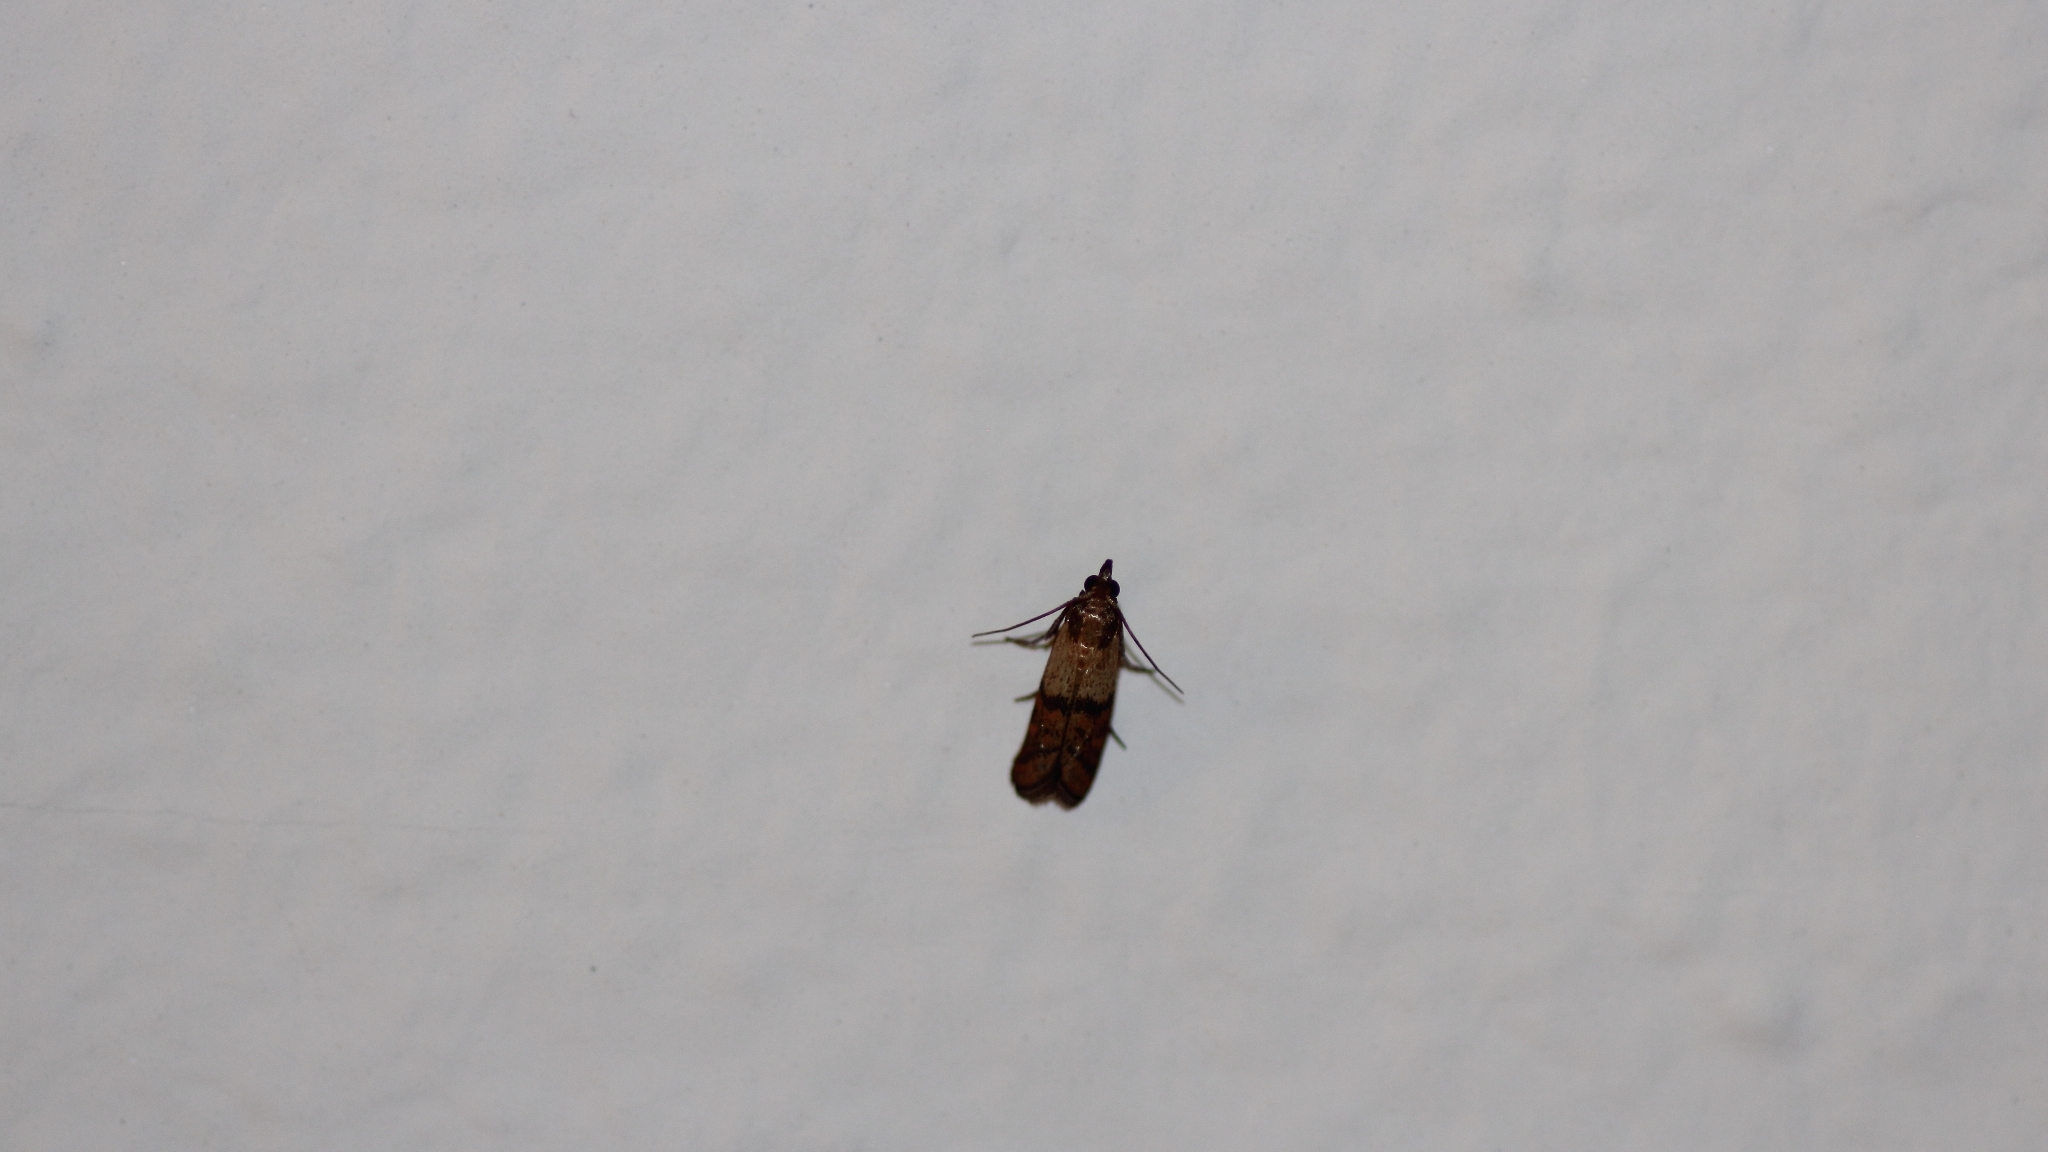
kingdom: Animalia
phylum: Arthropoda
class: Insecta
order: Lepidoptera
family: Pyralidae
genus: Plodia
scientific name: Plodia interpunctella
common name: Indian meal moth
